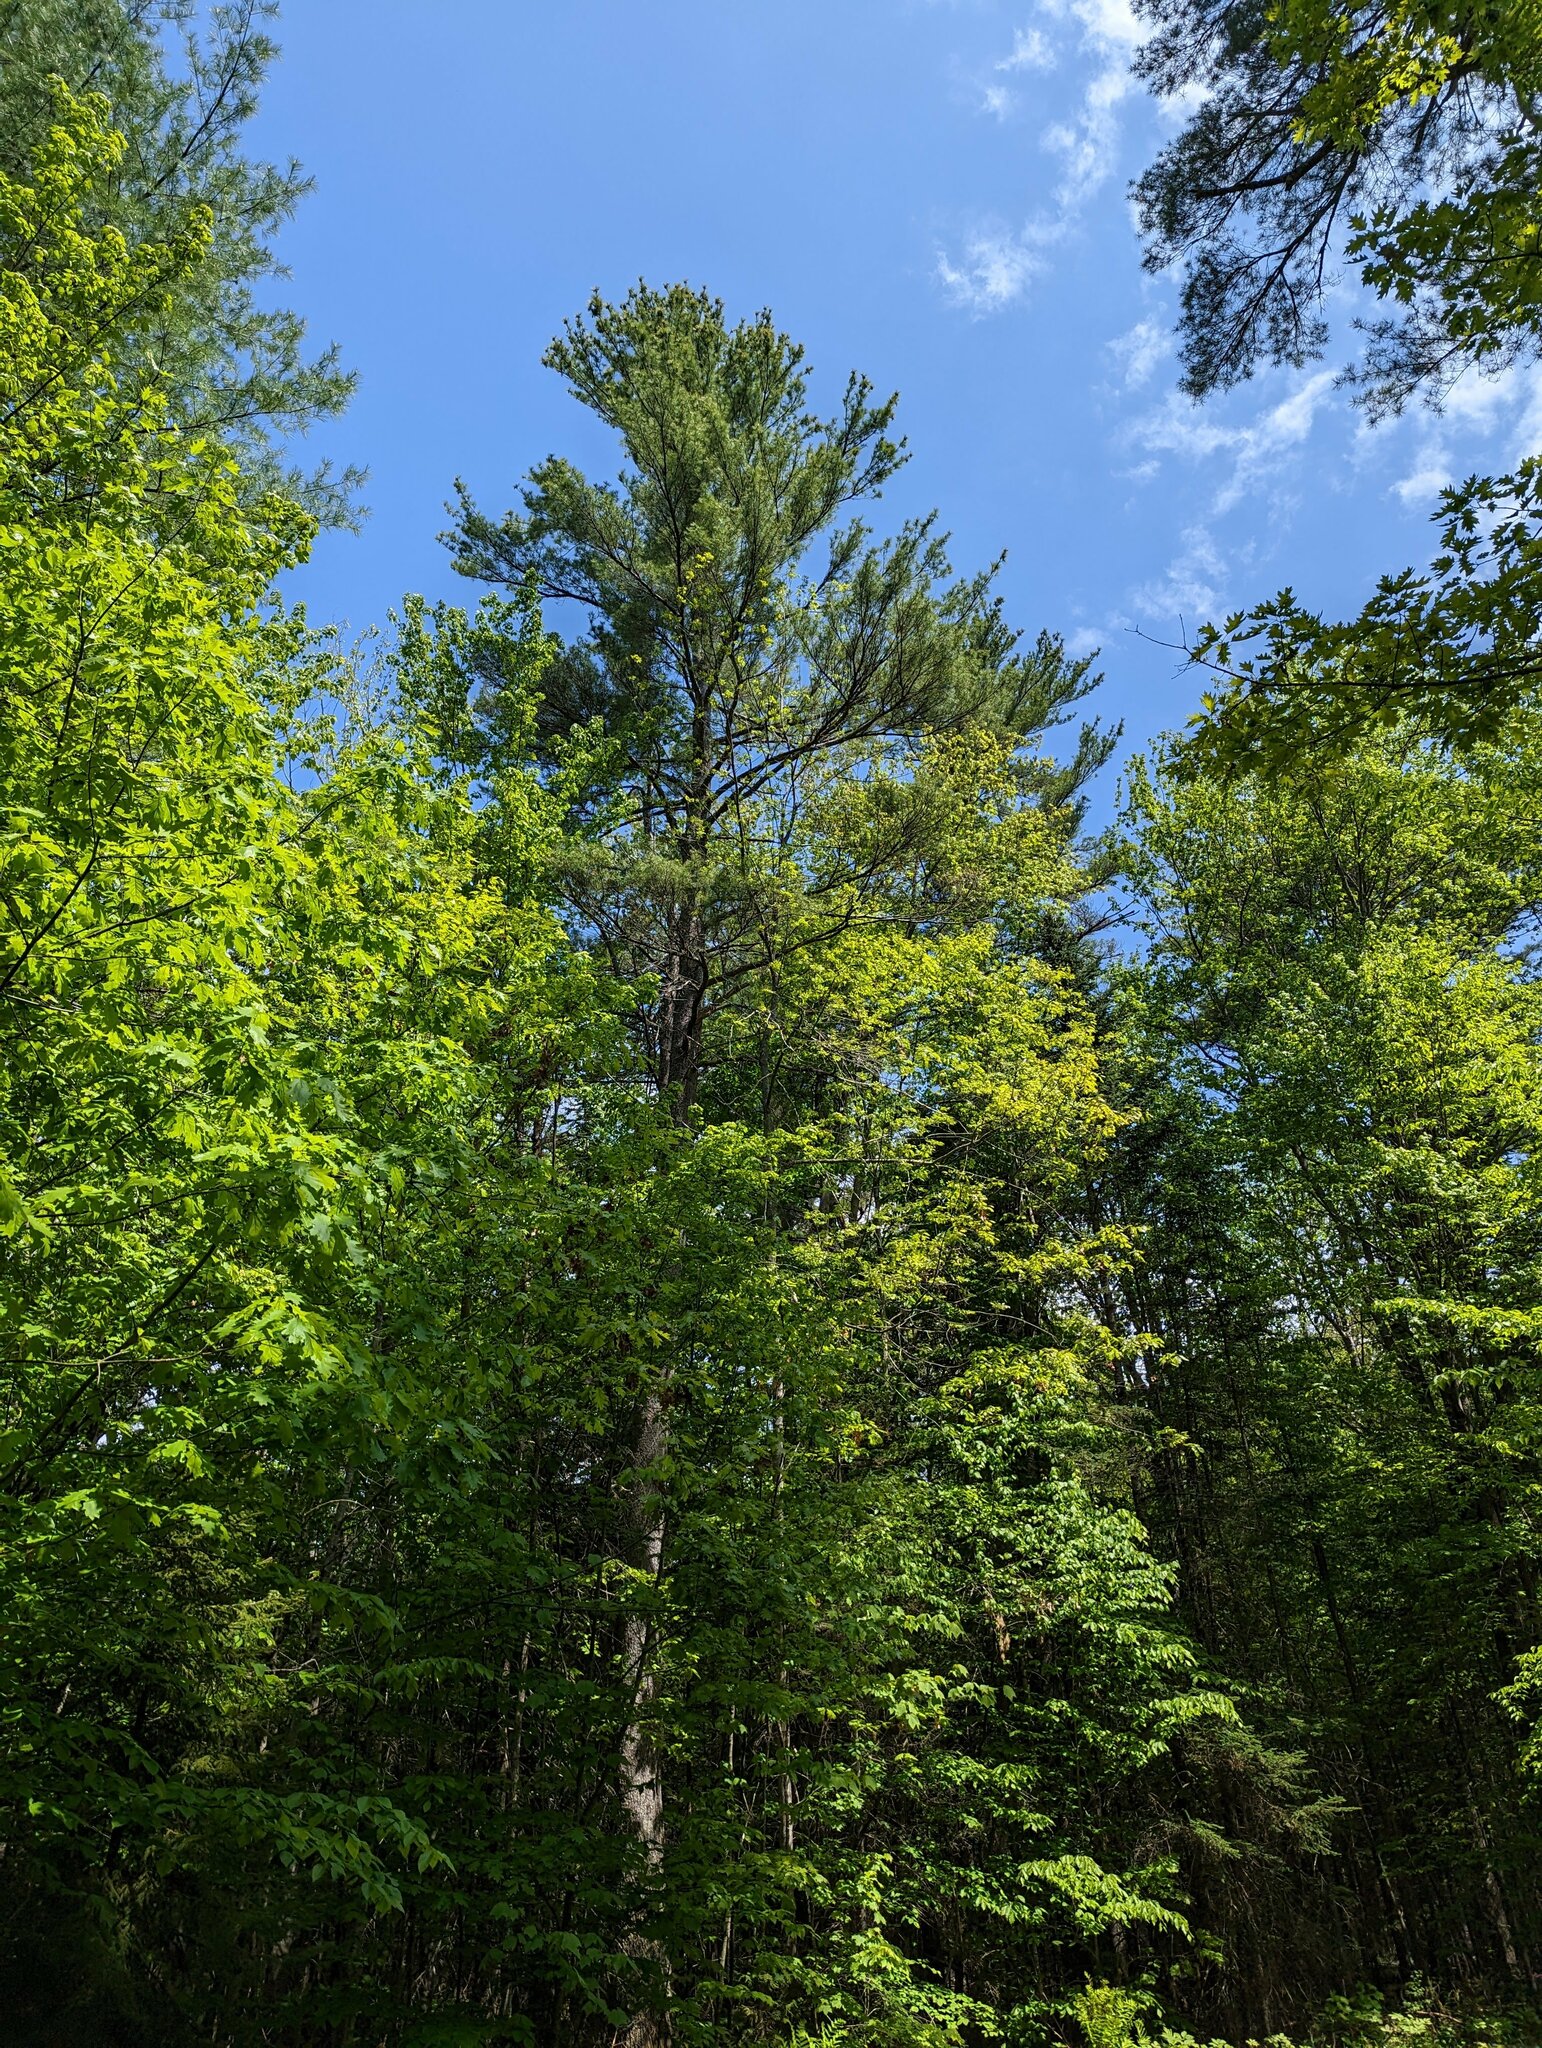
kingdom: Plantae
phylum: Tracheophyta
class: Pinopsida
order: Pinales
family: Pinaceae
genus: Pinus
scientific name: Pinus strobus
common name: Weymouth pine
